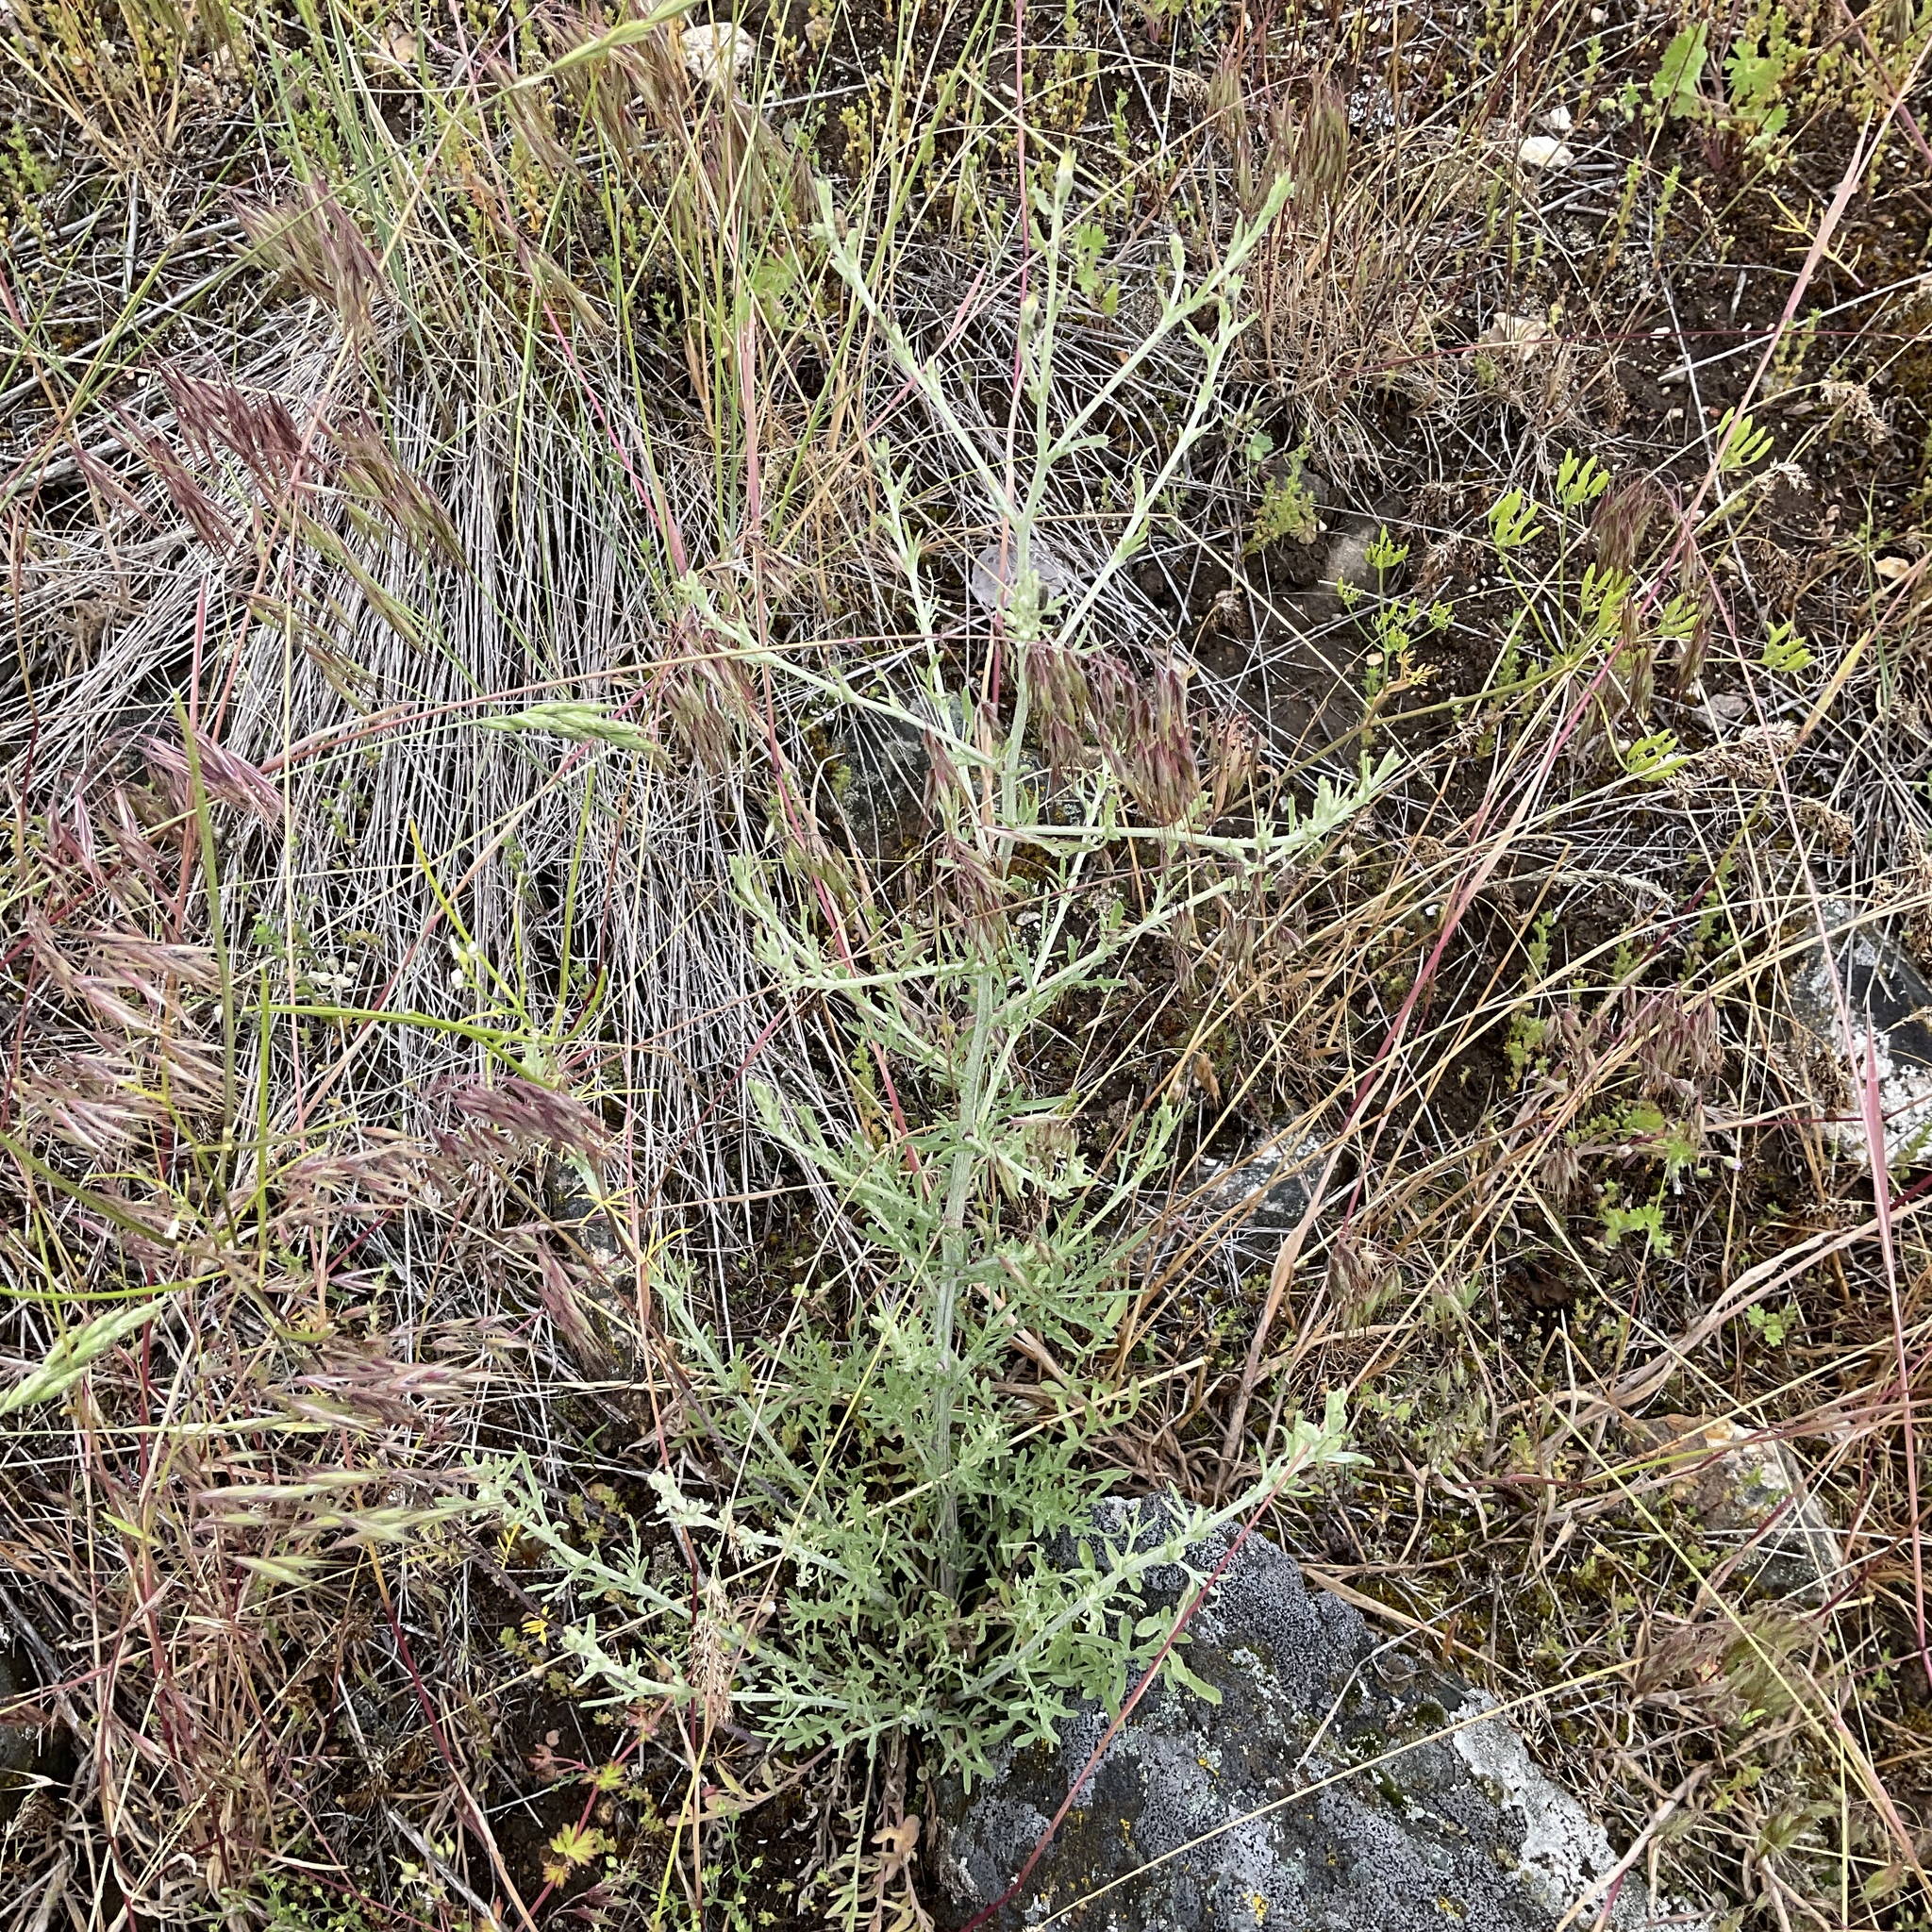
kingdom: Plantae
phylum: Tracheophyta
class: Magnoliopsida
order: Asterales
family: Asteraceae
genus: Centaurea
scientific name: Centaurea diffusa
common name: Diffuse knapweed
